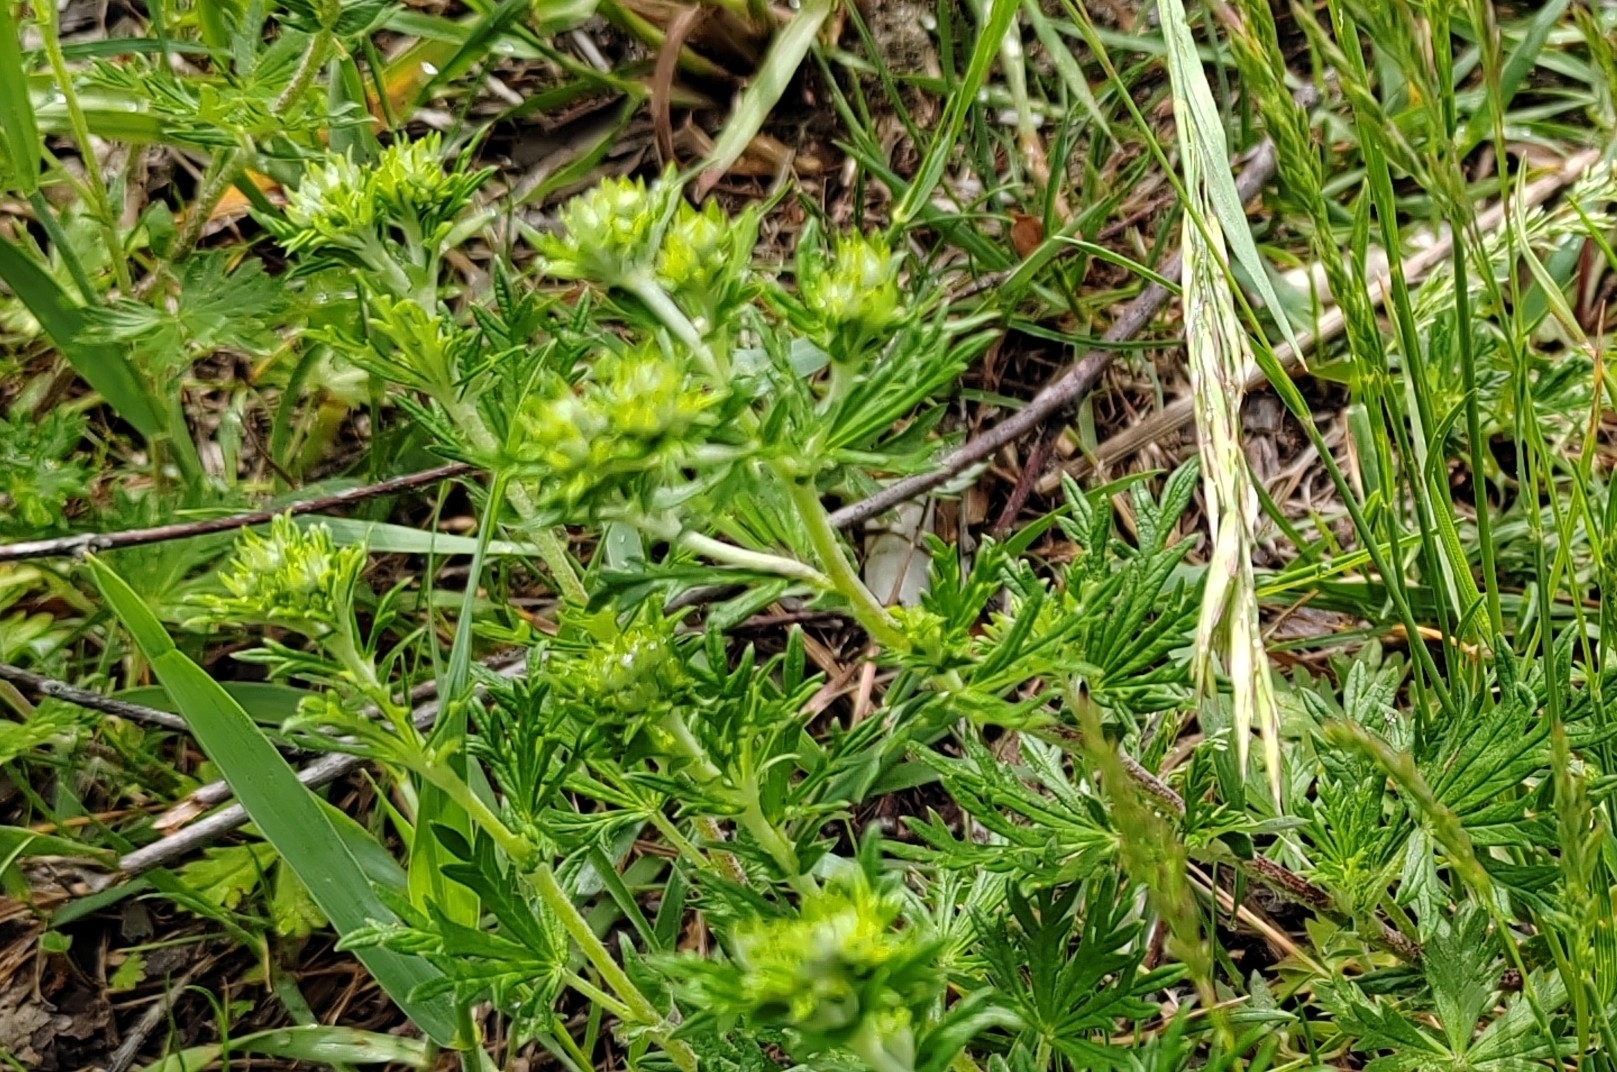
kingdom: Plantae
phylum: Tracheophyta
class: Magnoliopsida
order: Rosales
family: Rosaceae
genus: Potentilla
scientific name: Potentilla argentea
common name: Hoary cinquefoil
